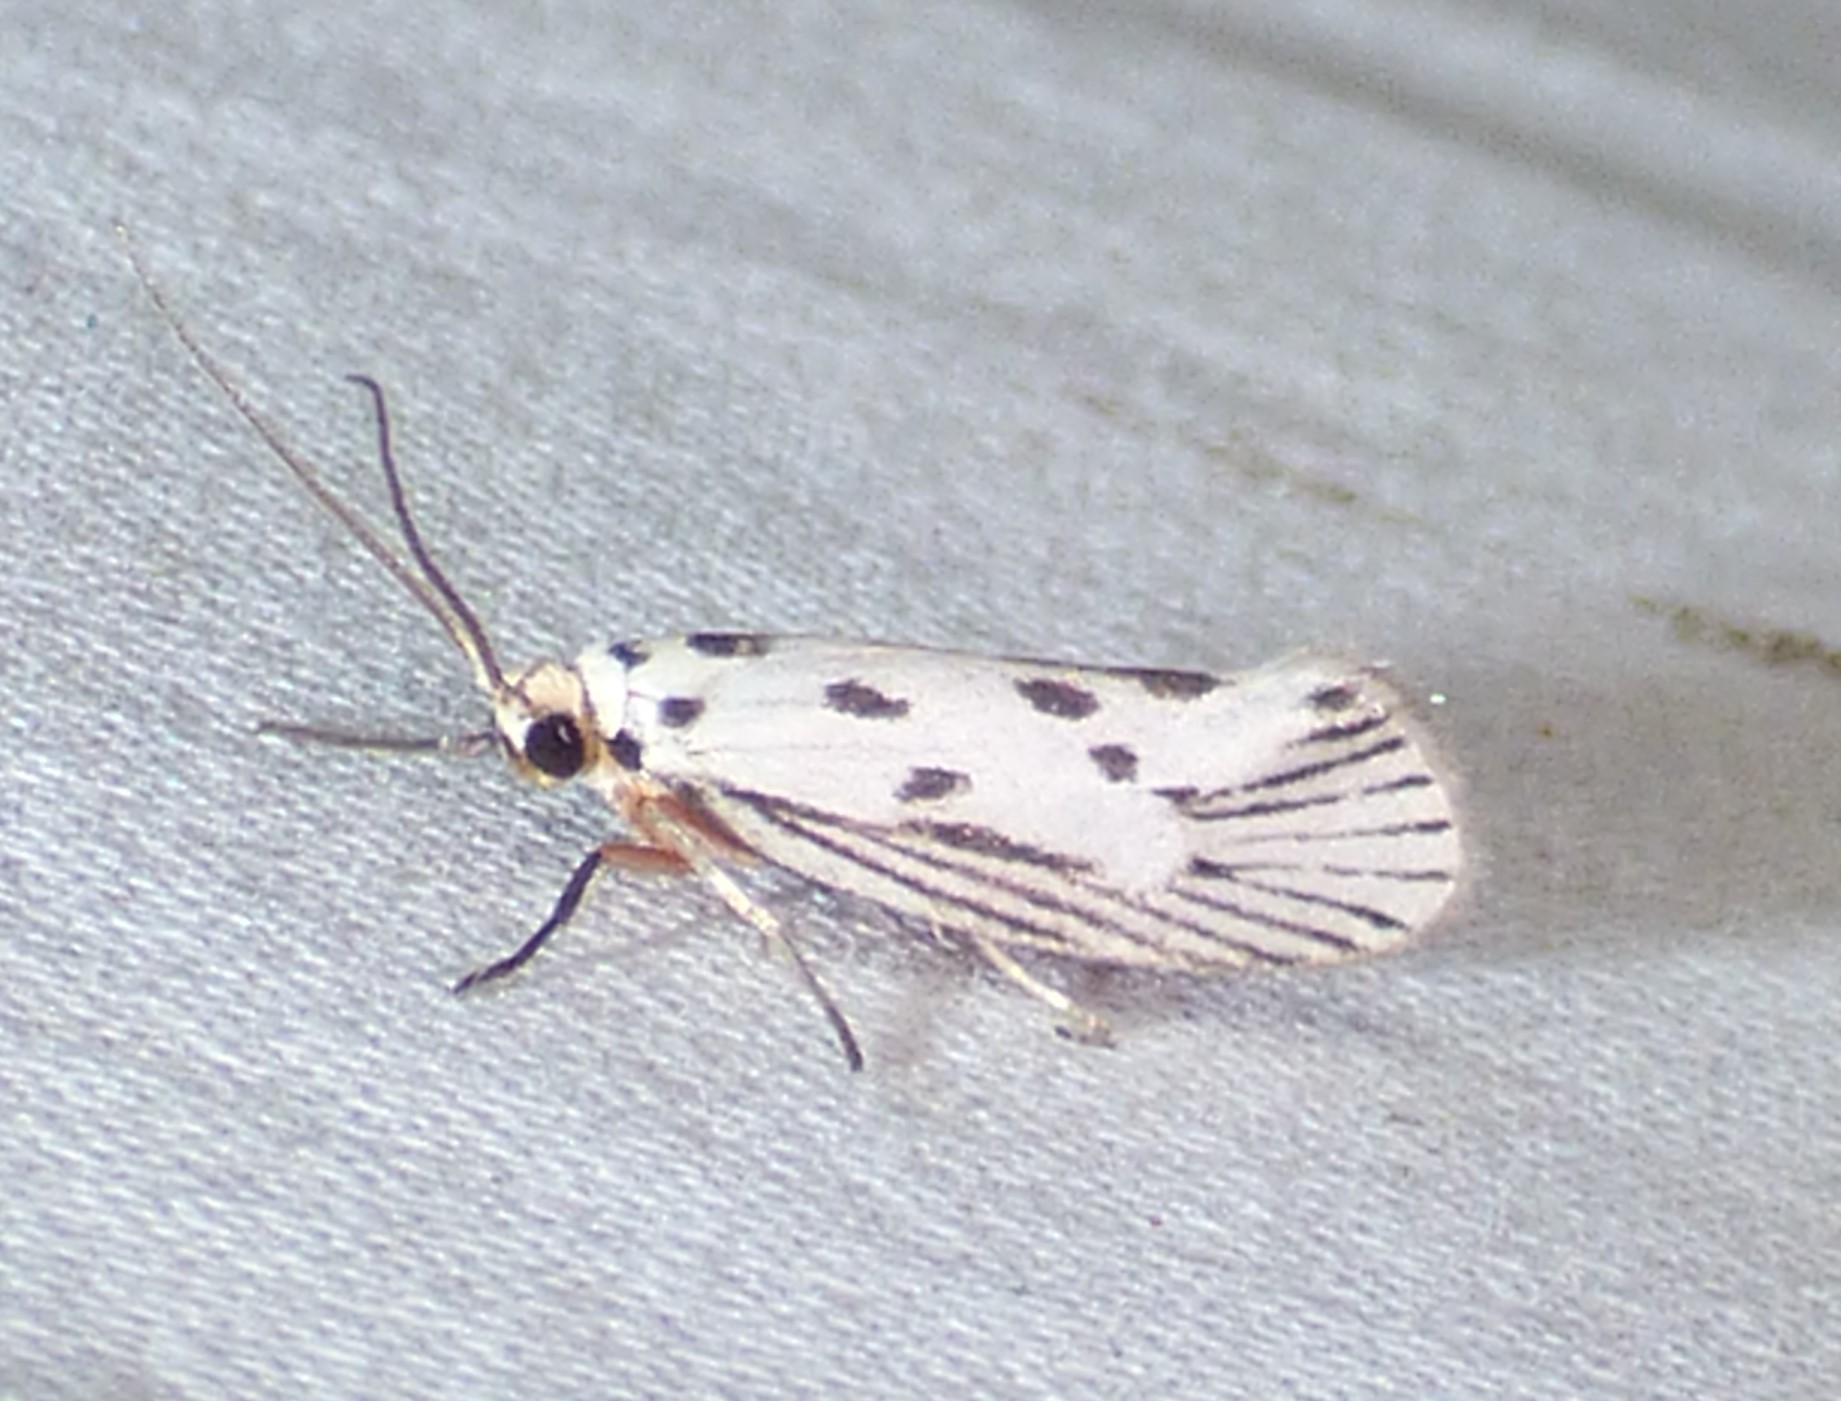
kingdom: Animalia
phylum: Arthropoda
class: Insecta
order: Lepidoptera
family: Lacturidae
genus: Lactura
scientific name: Lactura
